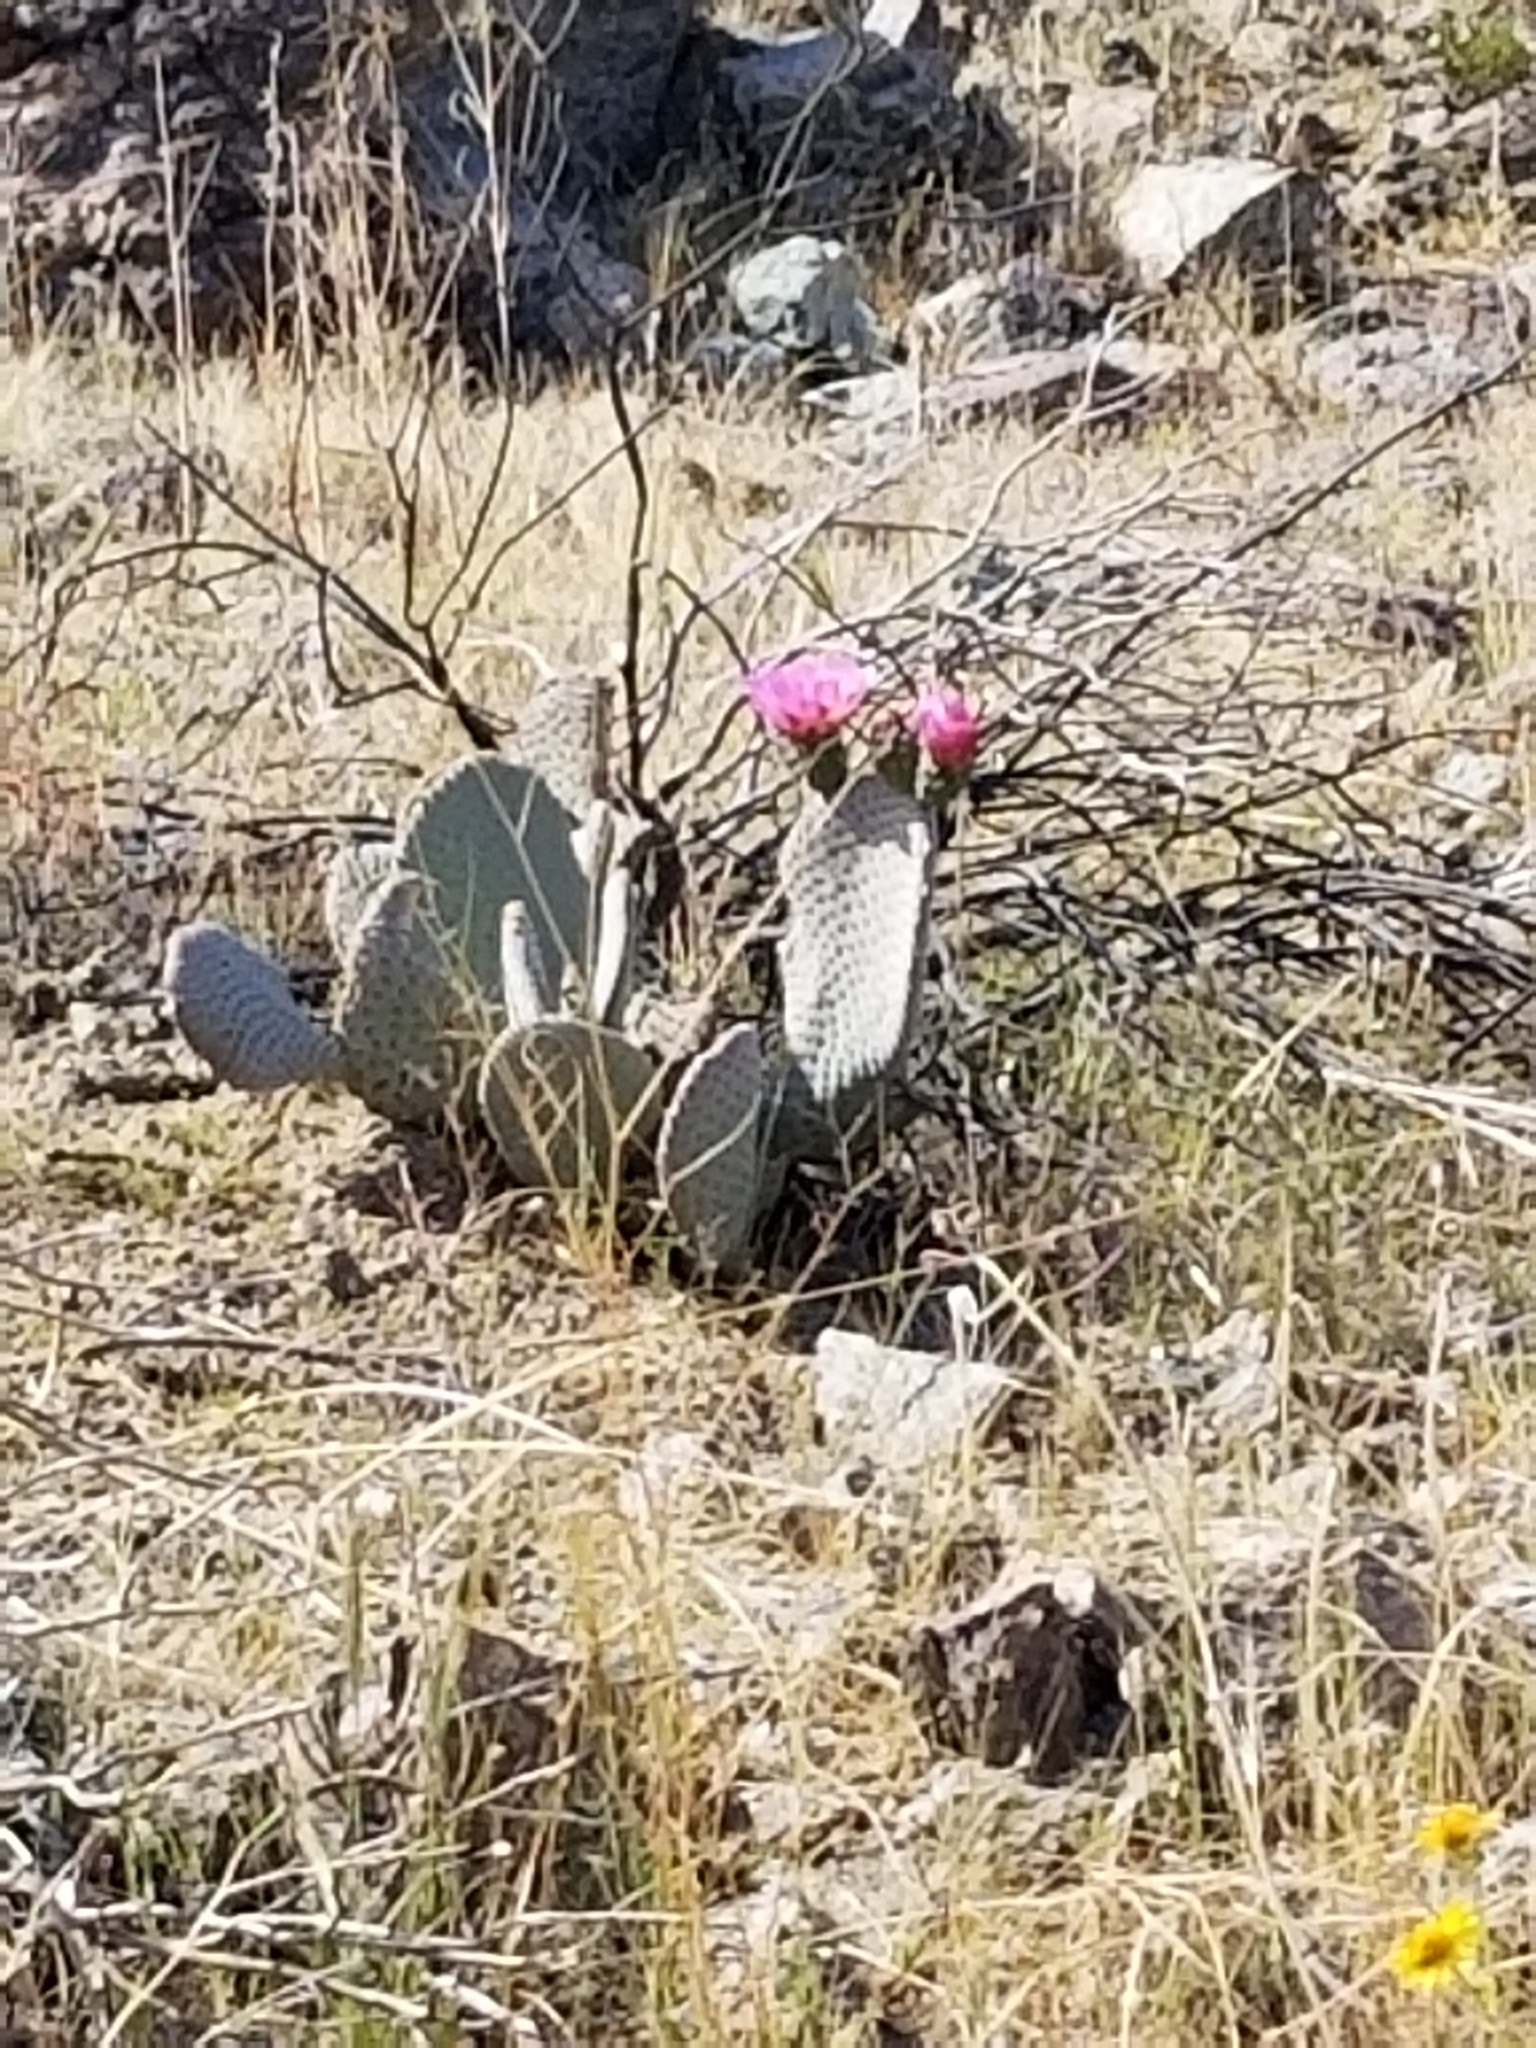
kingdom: Plantae
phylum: Tracheophyta
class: Magnoliopsida
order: Caryophyllales
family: Cactaceae
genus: Opuntia
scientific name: Opuntia basilaris
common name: Beavertail prickly-pear
